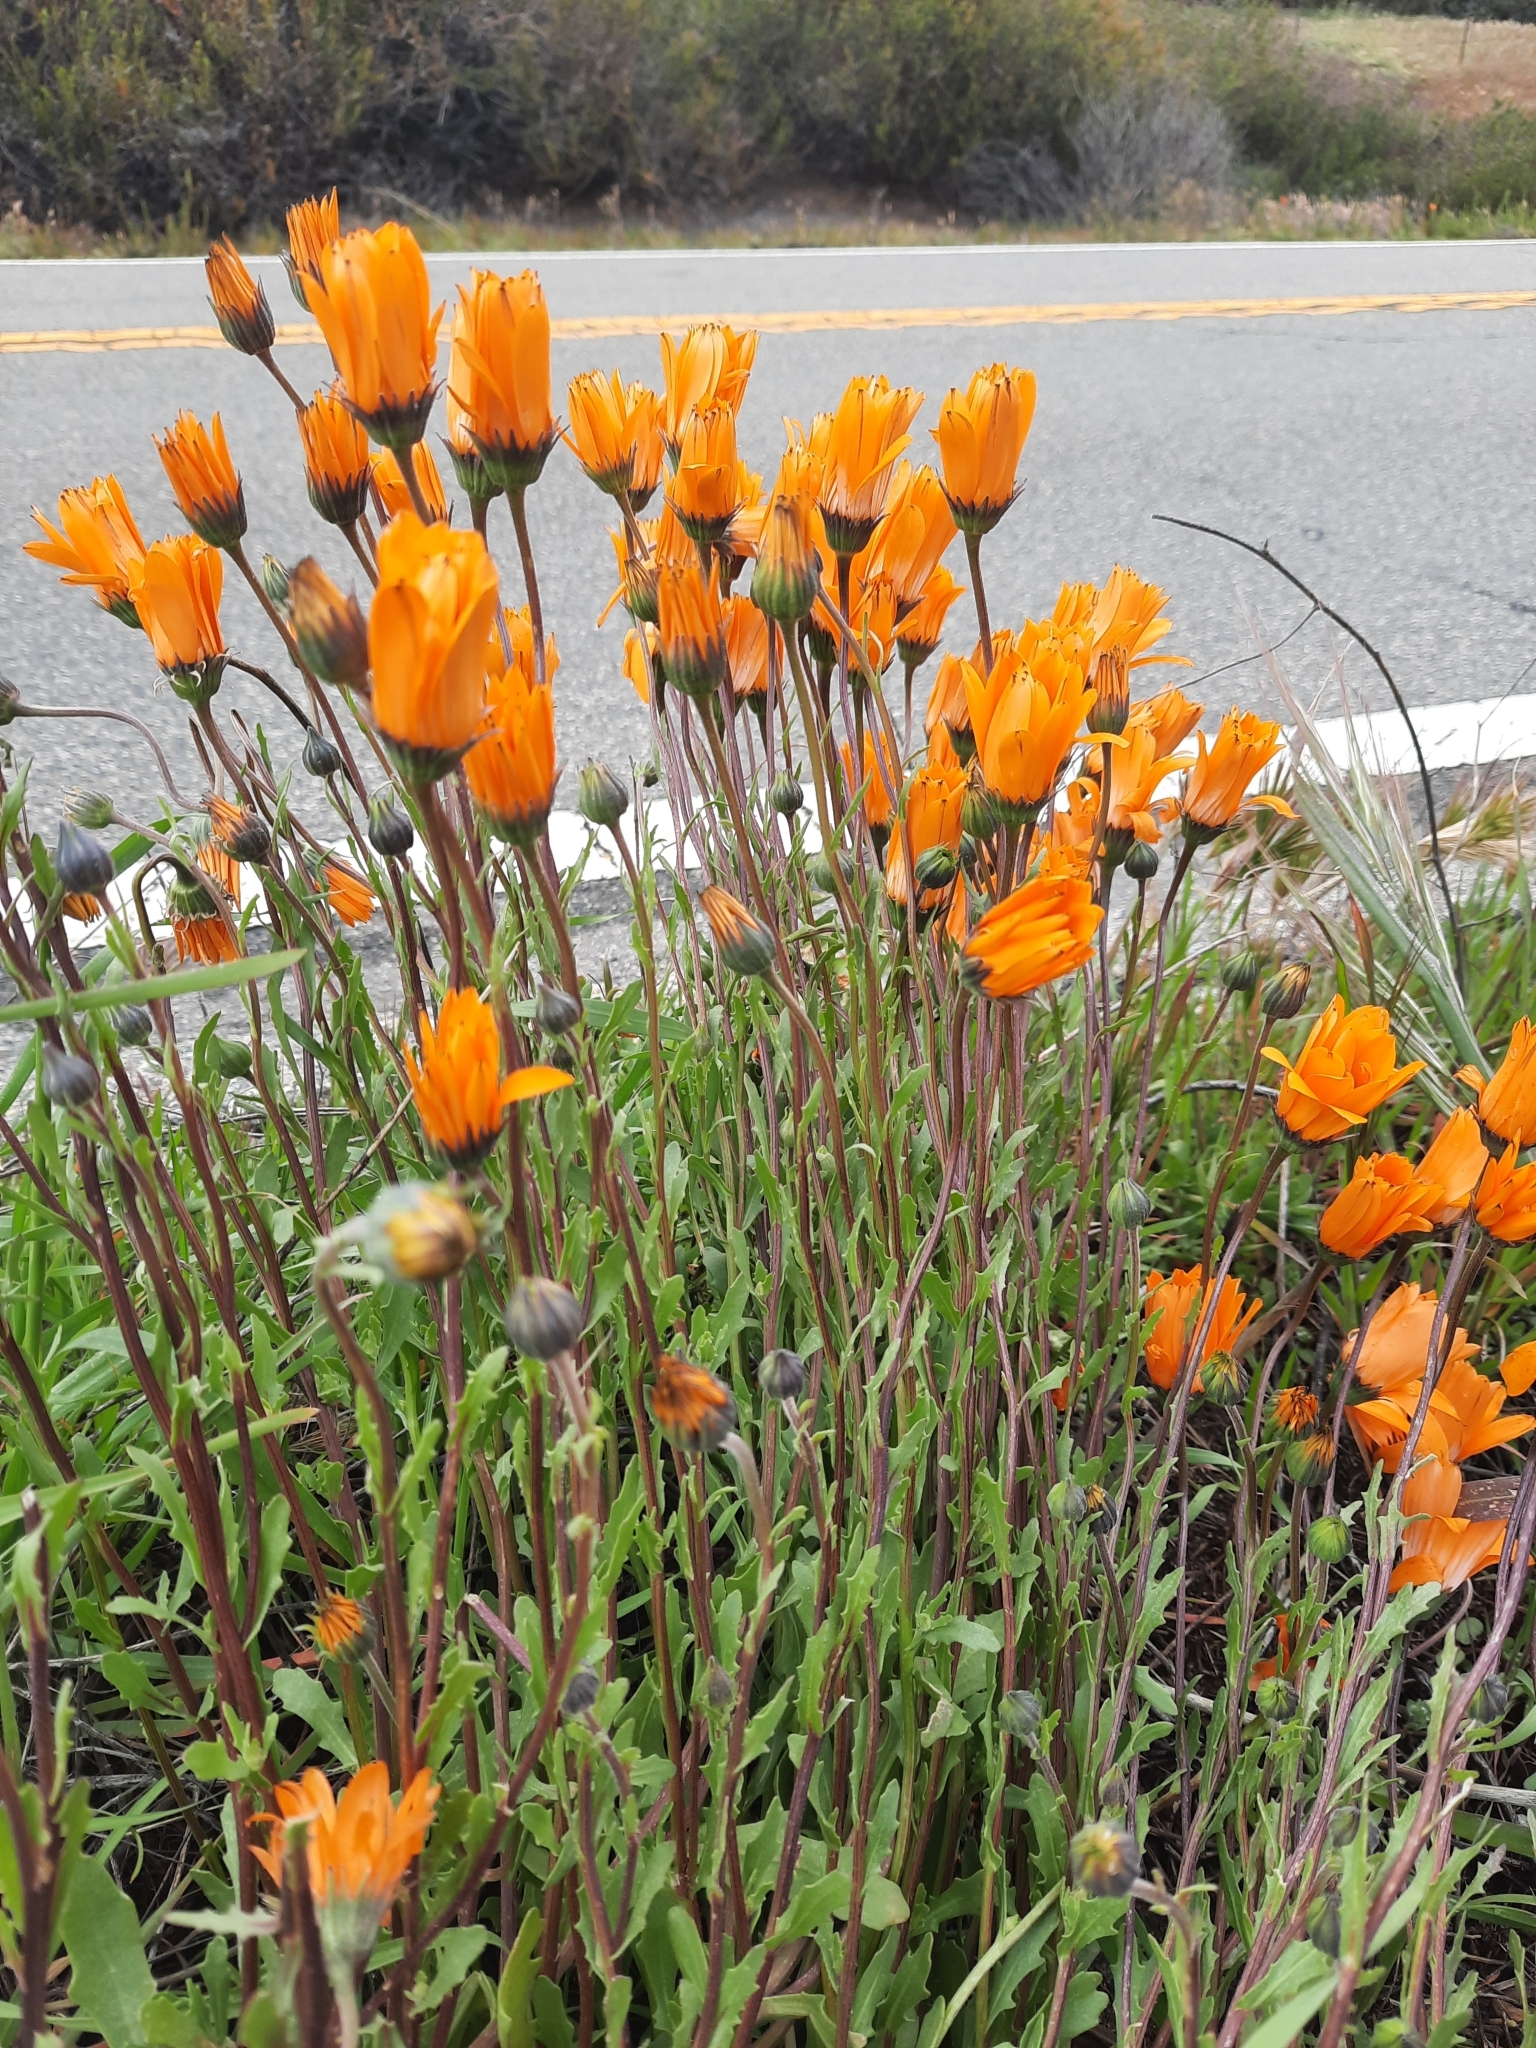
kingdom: Plantae
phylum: Tracheophyta
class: Magnoliopsida
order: Asterales
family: Asteraceae
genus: Dimorphotheca
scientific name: Dimorphotheca sinuata
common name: Glandular cape marigold
